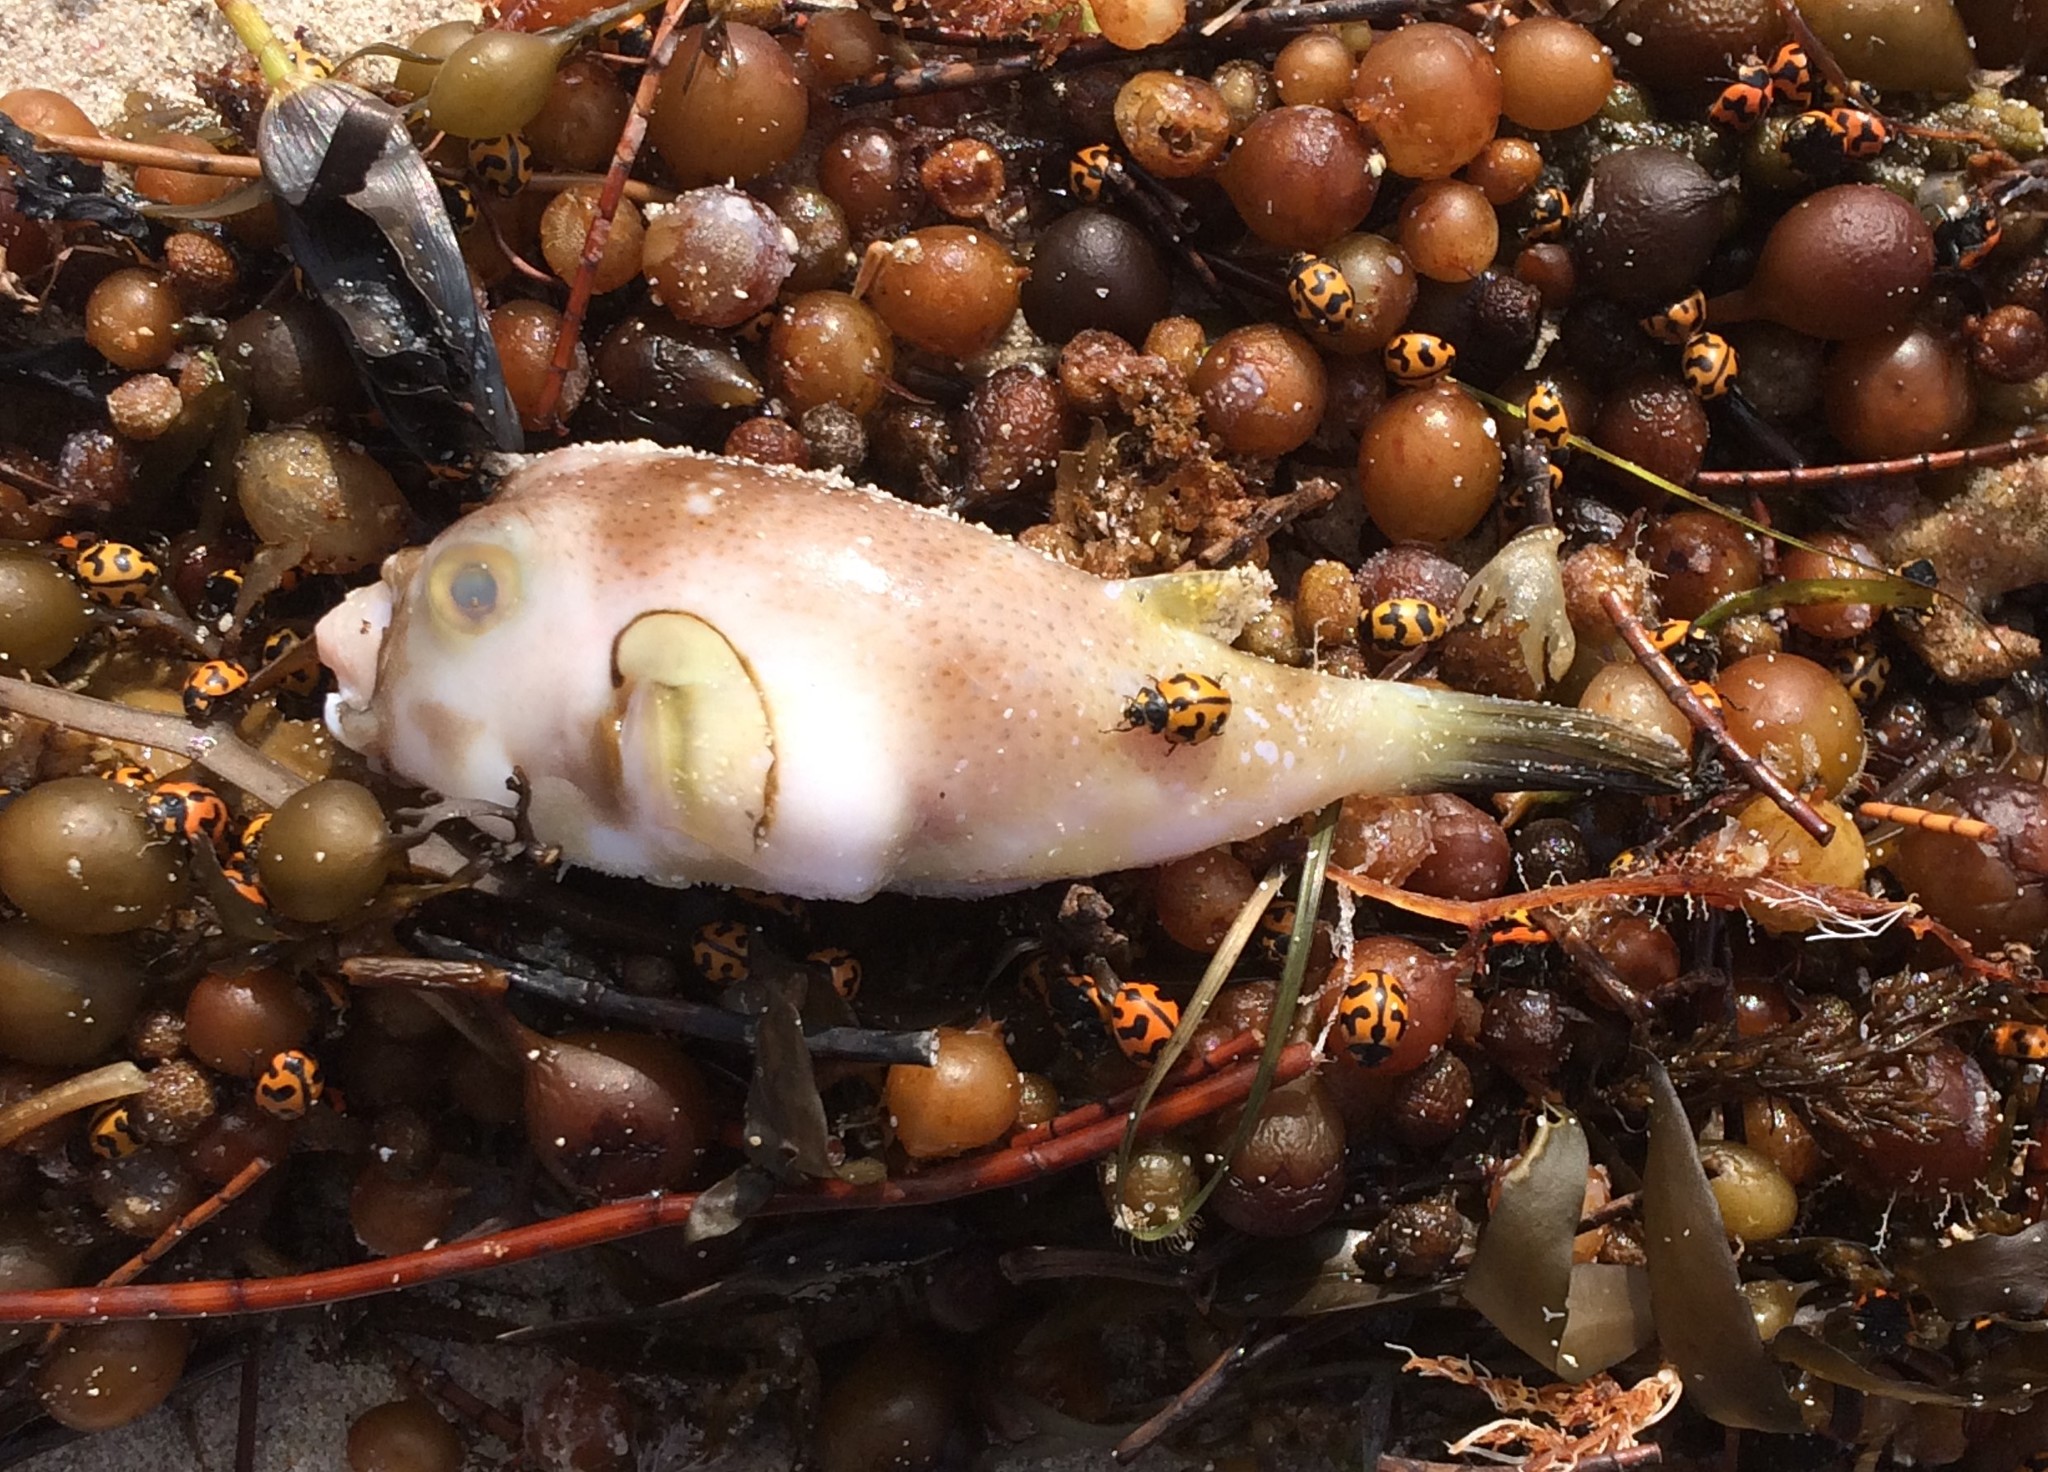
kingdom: Animalia
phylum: Chordata
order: Tetraodontiformes
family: Tetraodontidae
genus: Omegophora
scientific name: Omegophora armilla
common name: Ringed pufferfish
